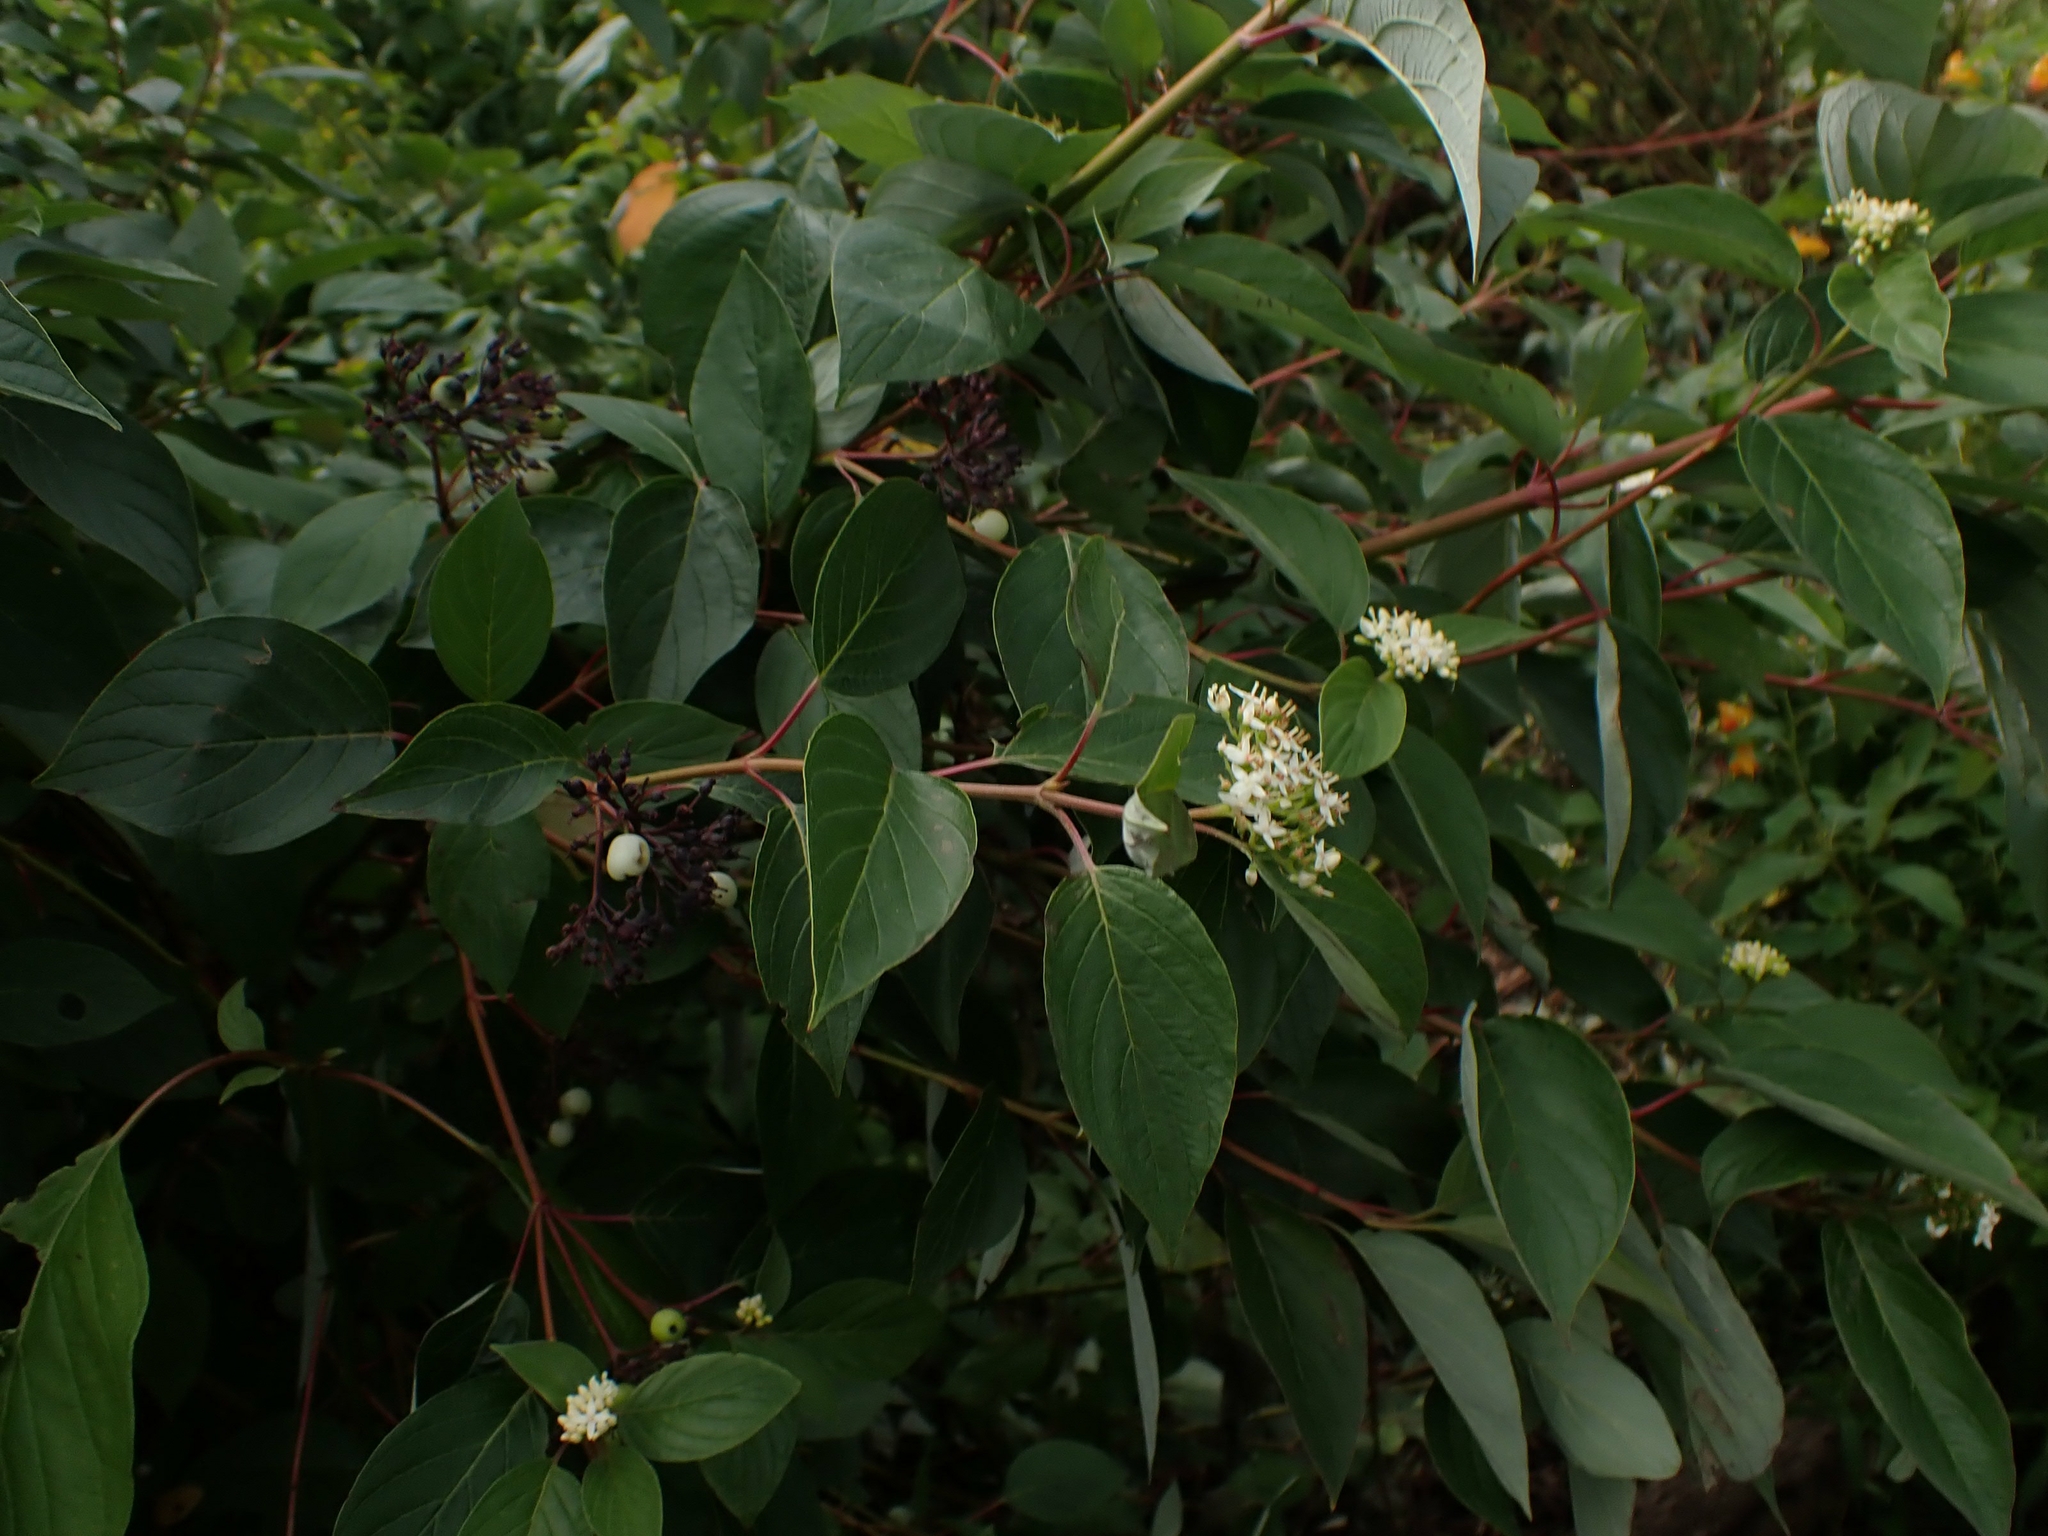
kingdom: Plantae
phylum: Tracheophyta
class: Magnoliopsida
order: Cornales
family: Cornaceae
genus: Cornus
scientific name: Cornus sericea
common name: Red-osier dogwood
